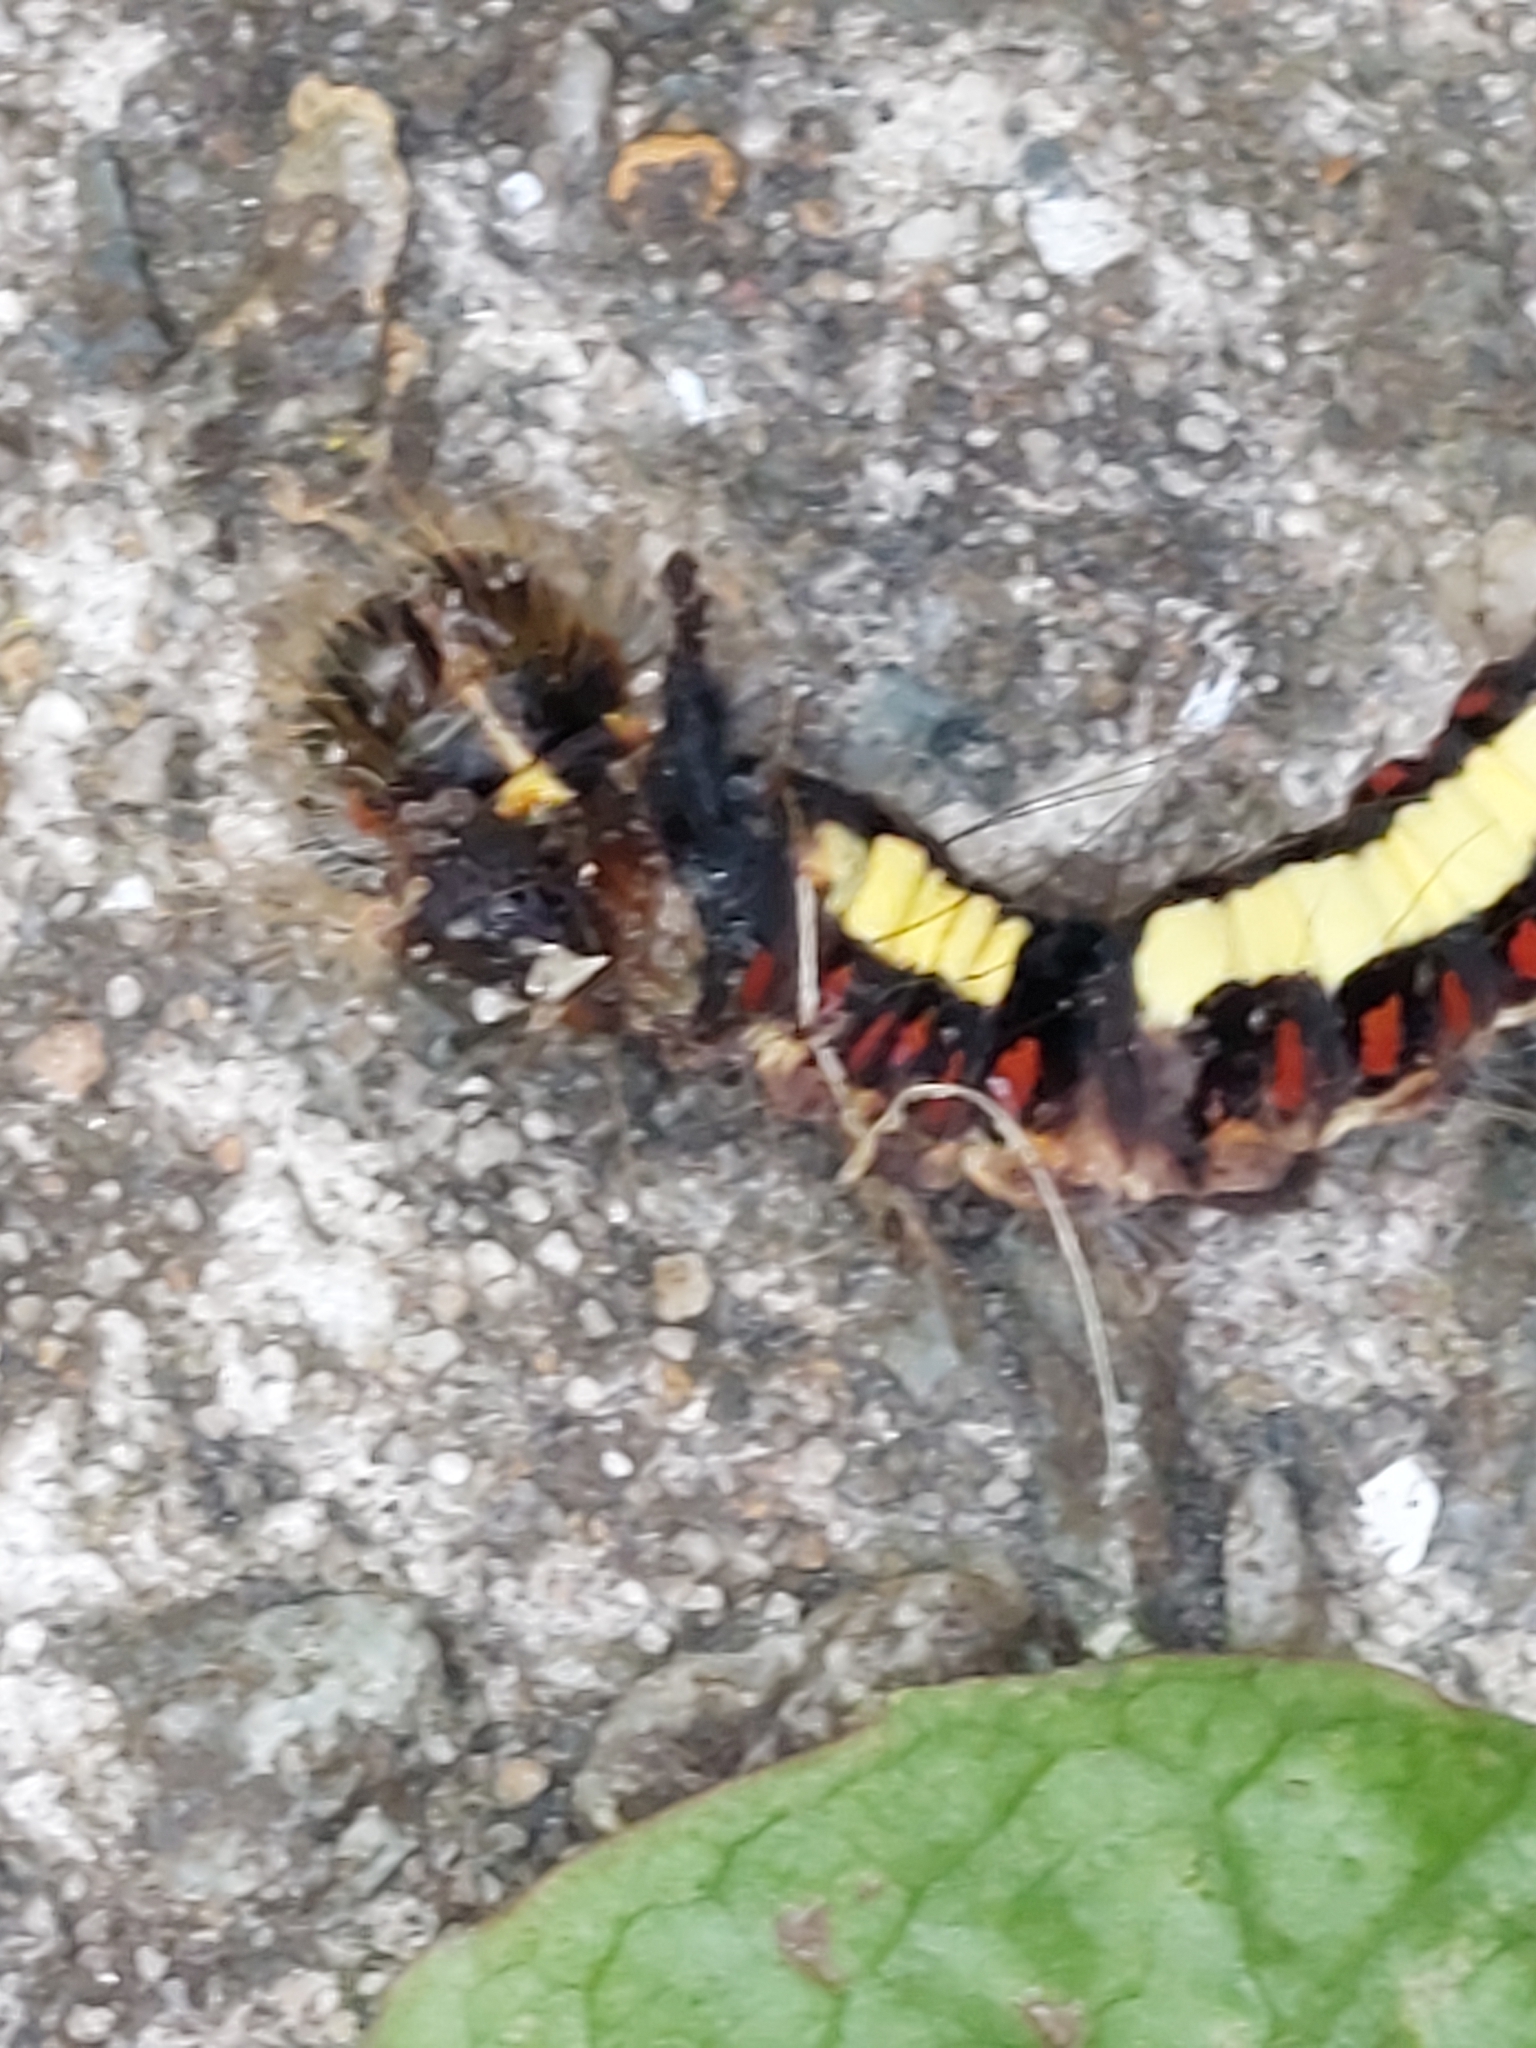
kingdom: Animalia
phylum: Arthropoda
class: Insecta
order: Lepidoptera
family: Noctuidae
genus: Acronicta
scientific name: Acronicta psi
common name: Grey dagger
